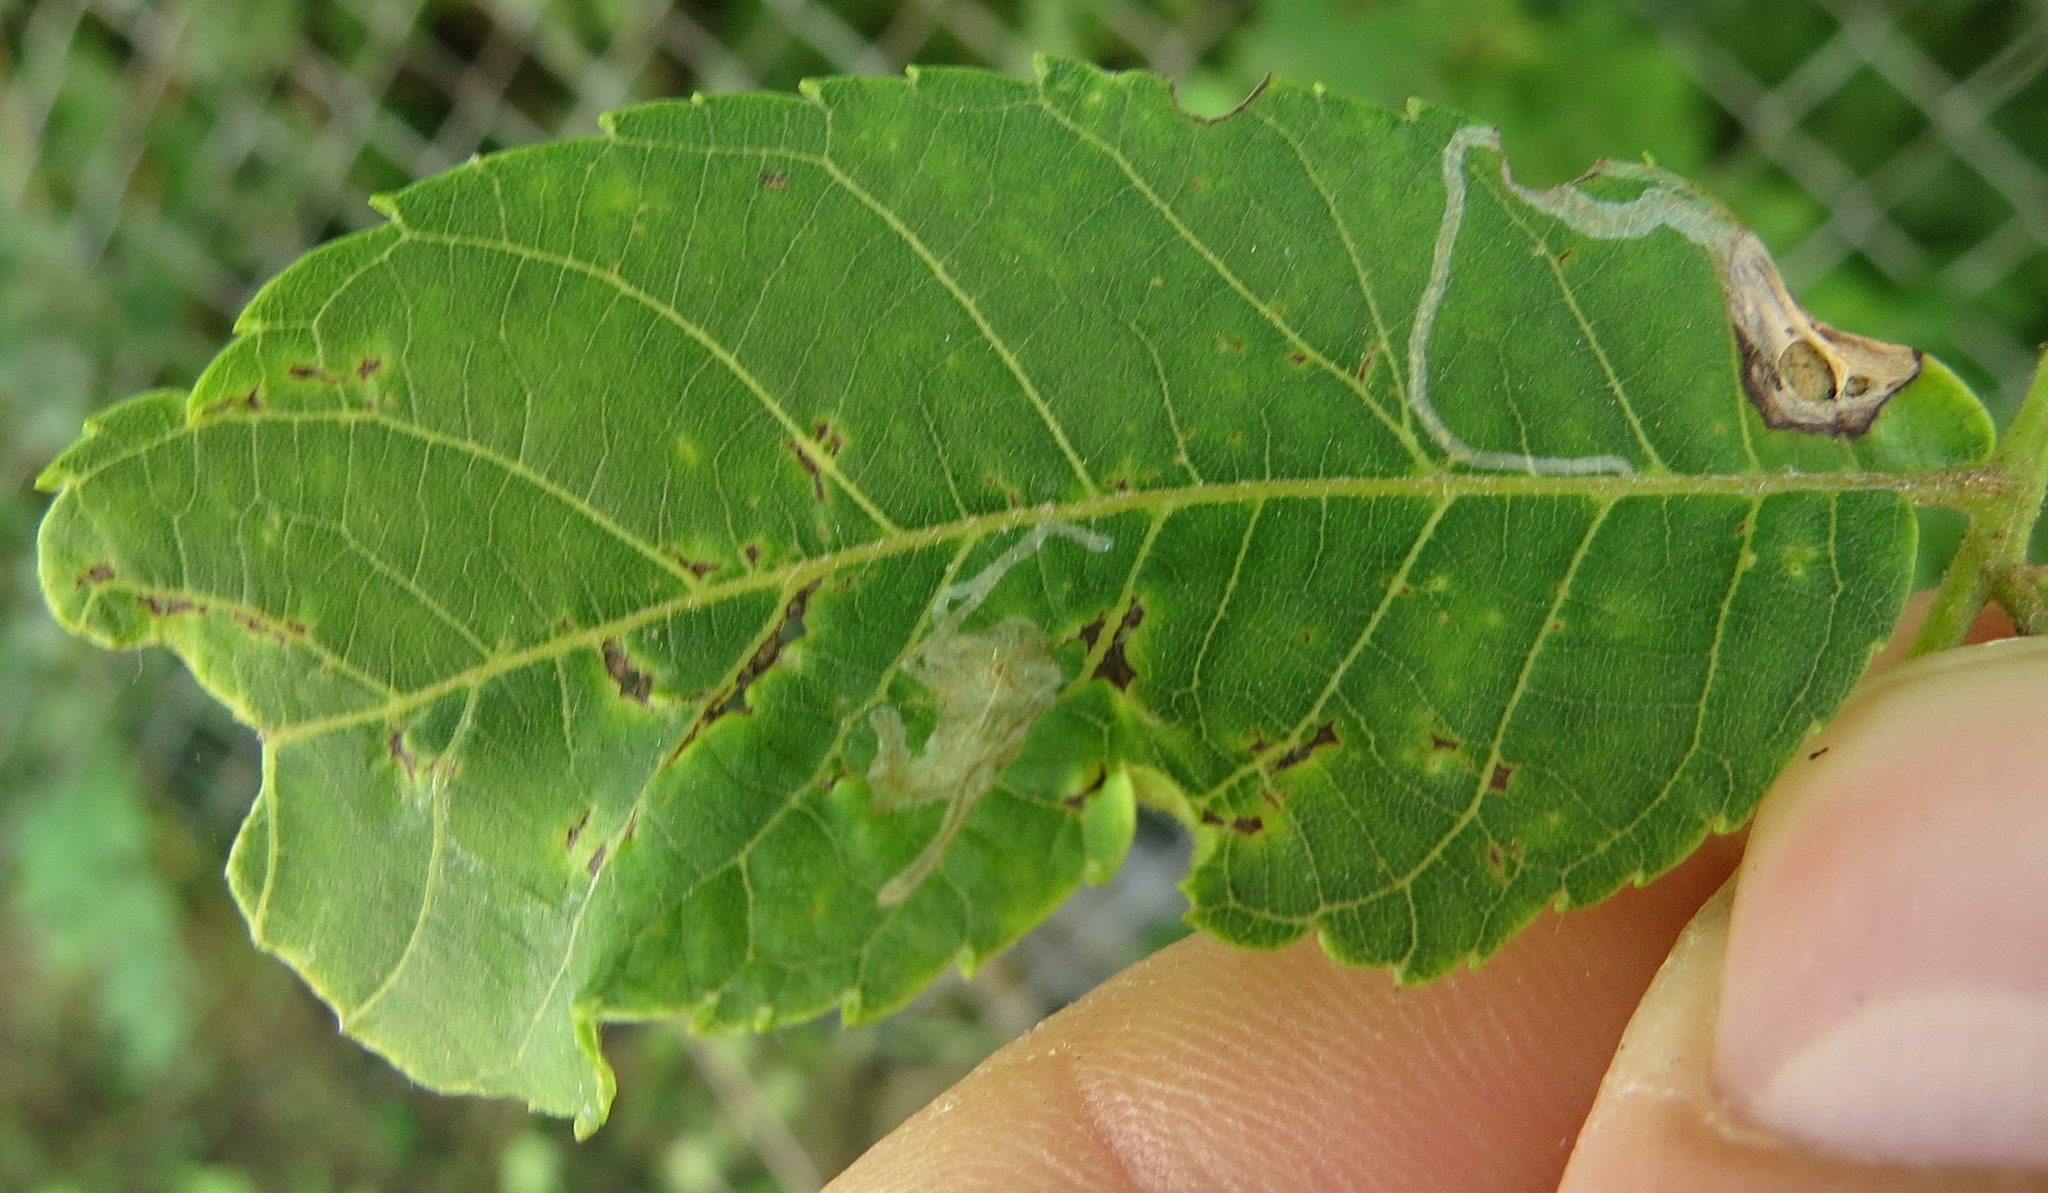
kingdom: Animalia
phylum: Arthropoda
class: Insecta
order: Lepidoptera
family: Gracillariidae
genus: Caloptilia
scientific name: Caloptilia blandella
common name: Walnut caloptilia moth
